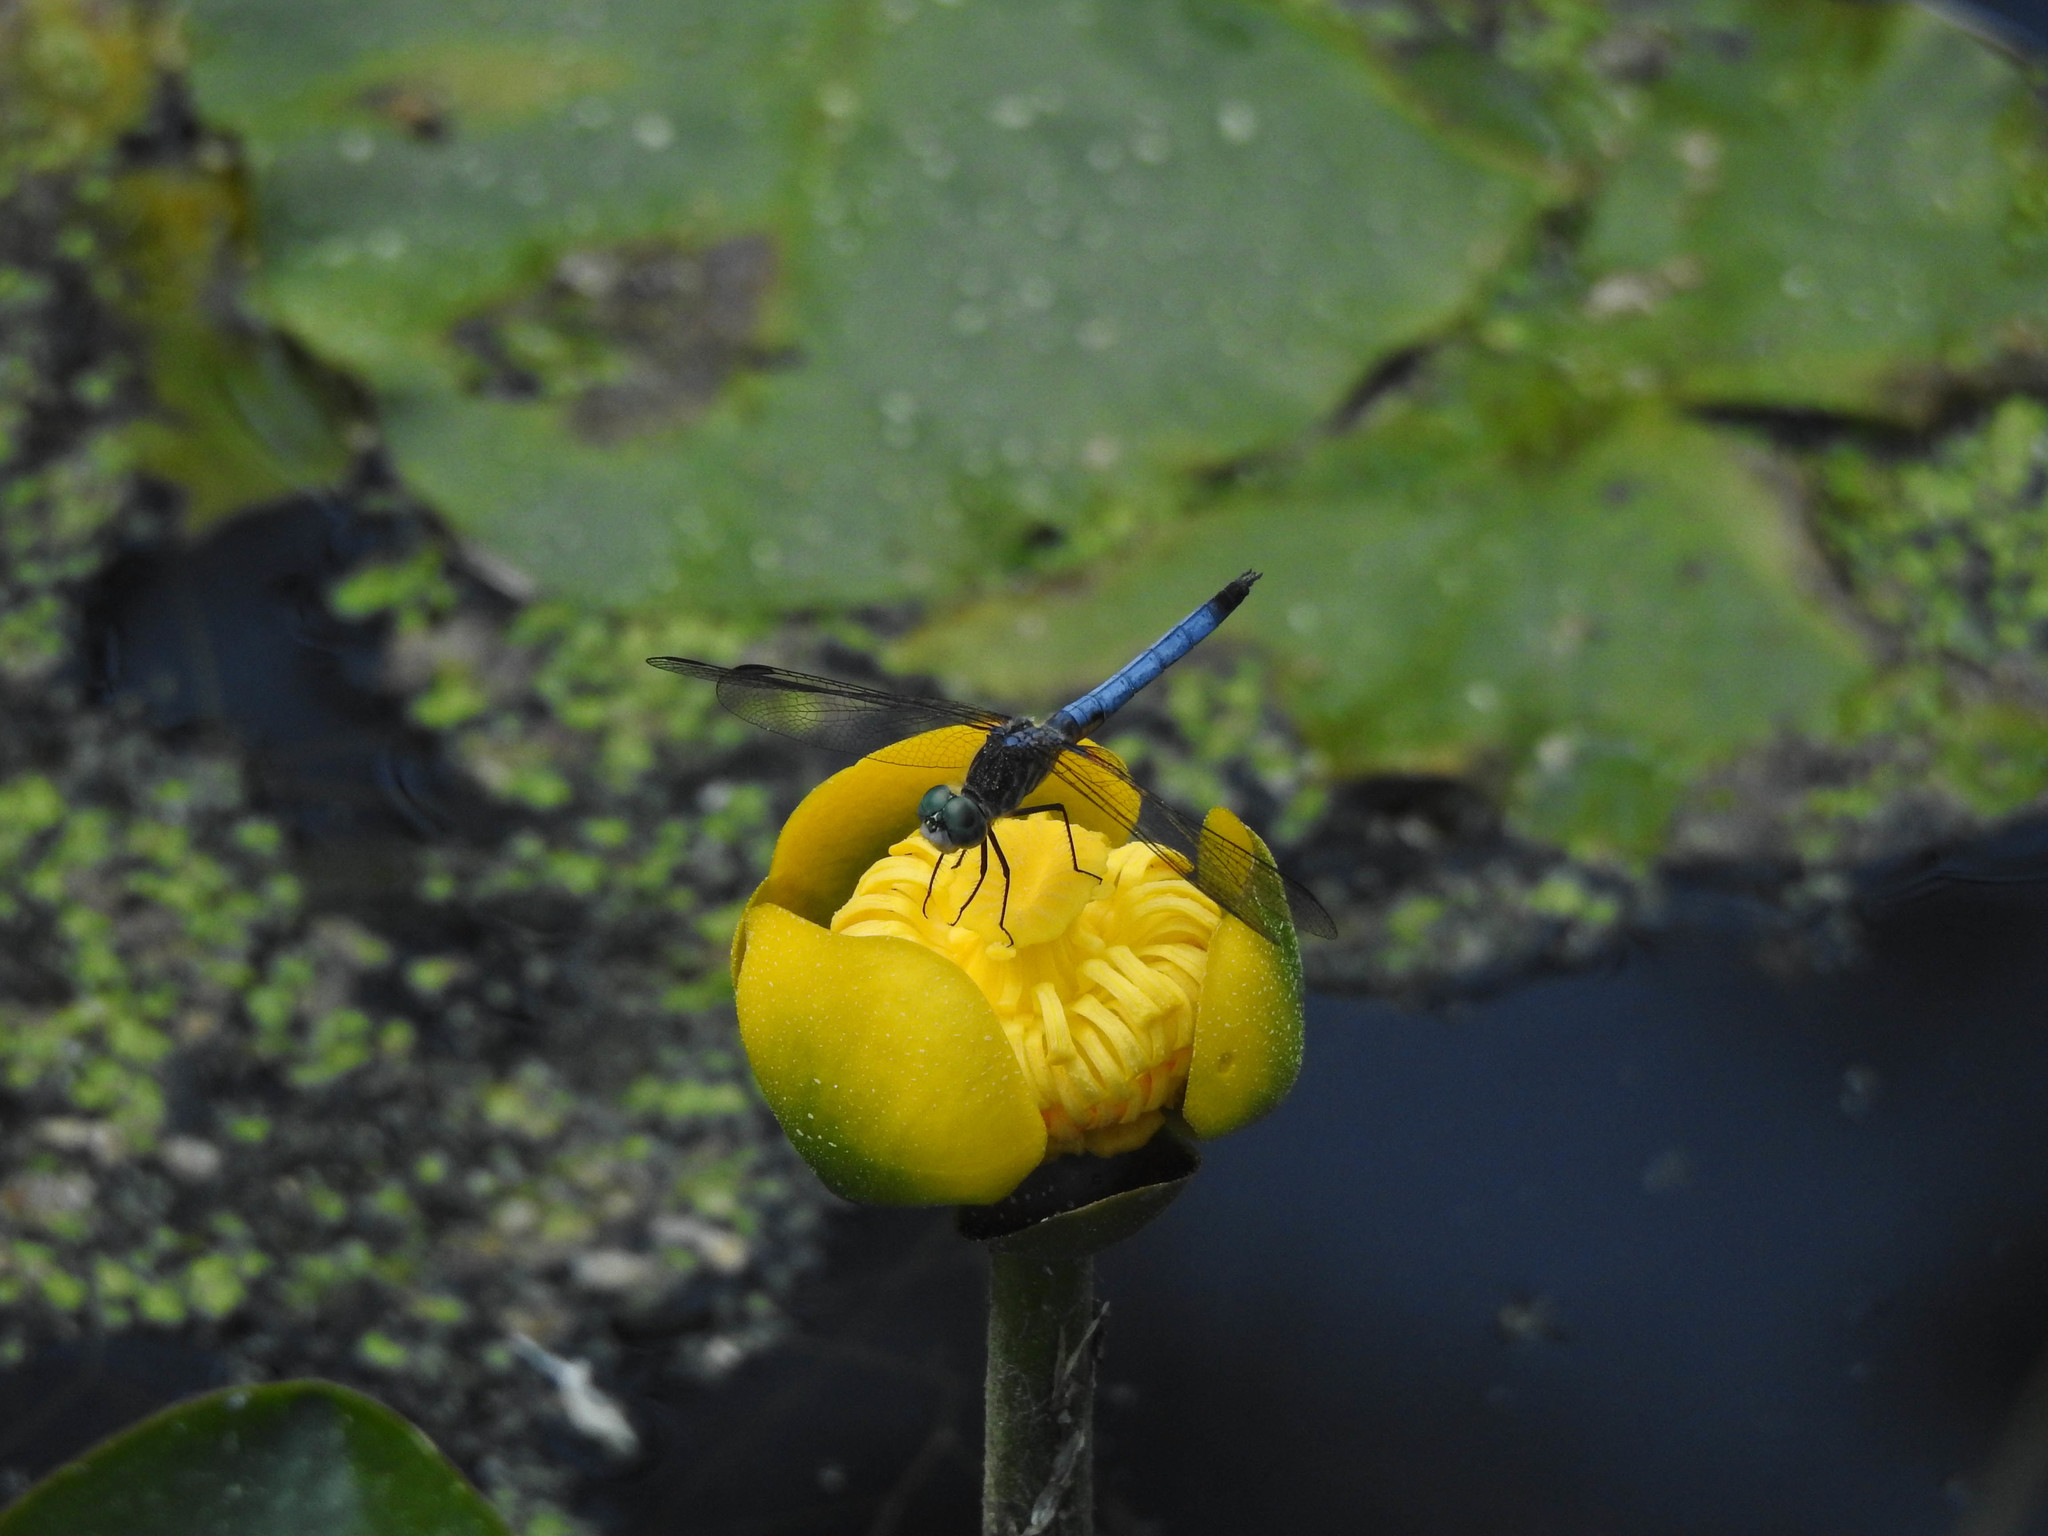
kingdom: Animalia
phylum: Arthropoda
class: Insecta
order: Odonata
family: Libellulidae
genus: Pachydiplax
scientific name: Pachydiplax longipennis
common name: Blue dasher
